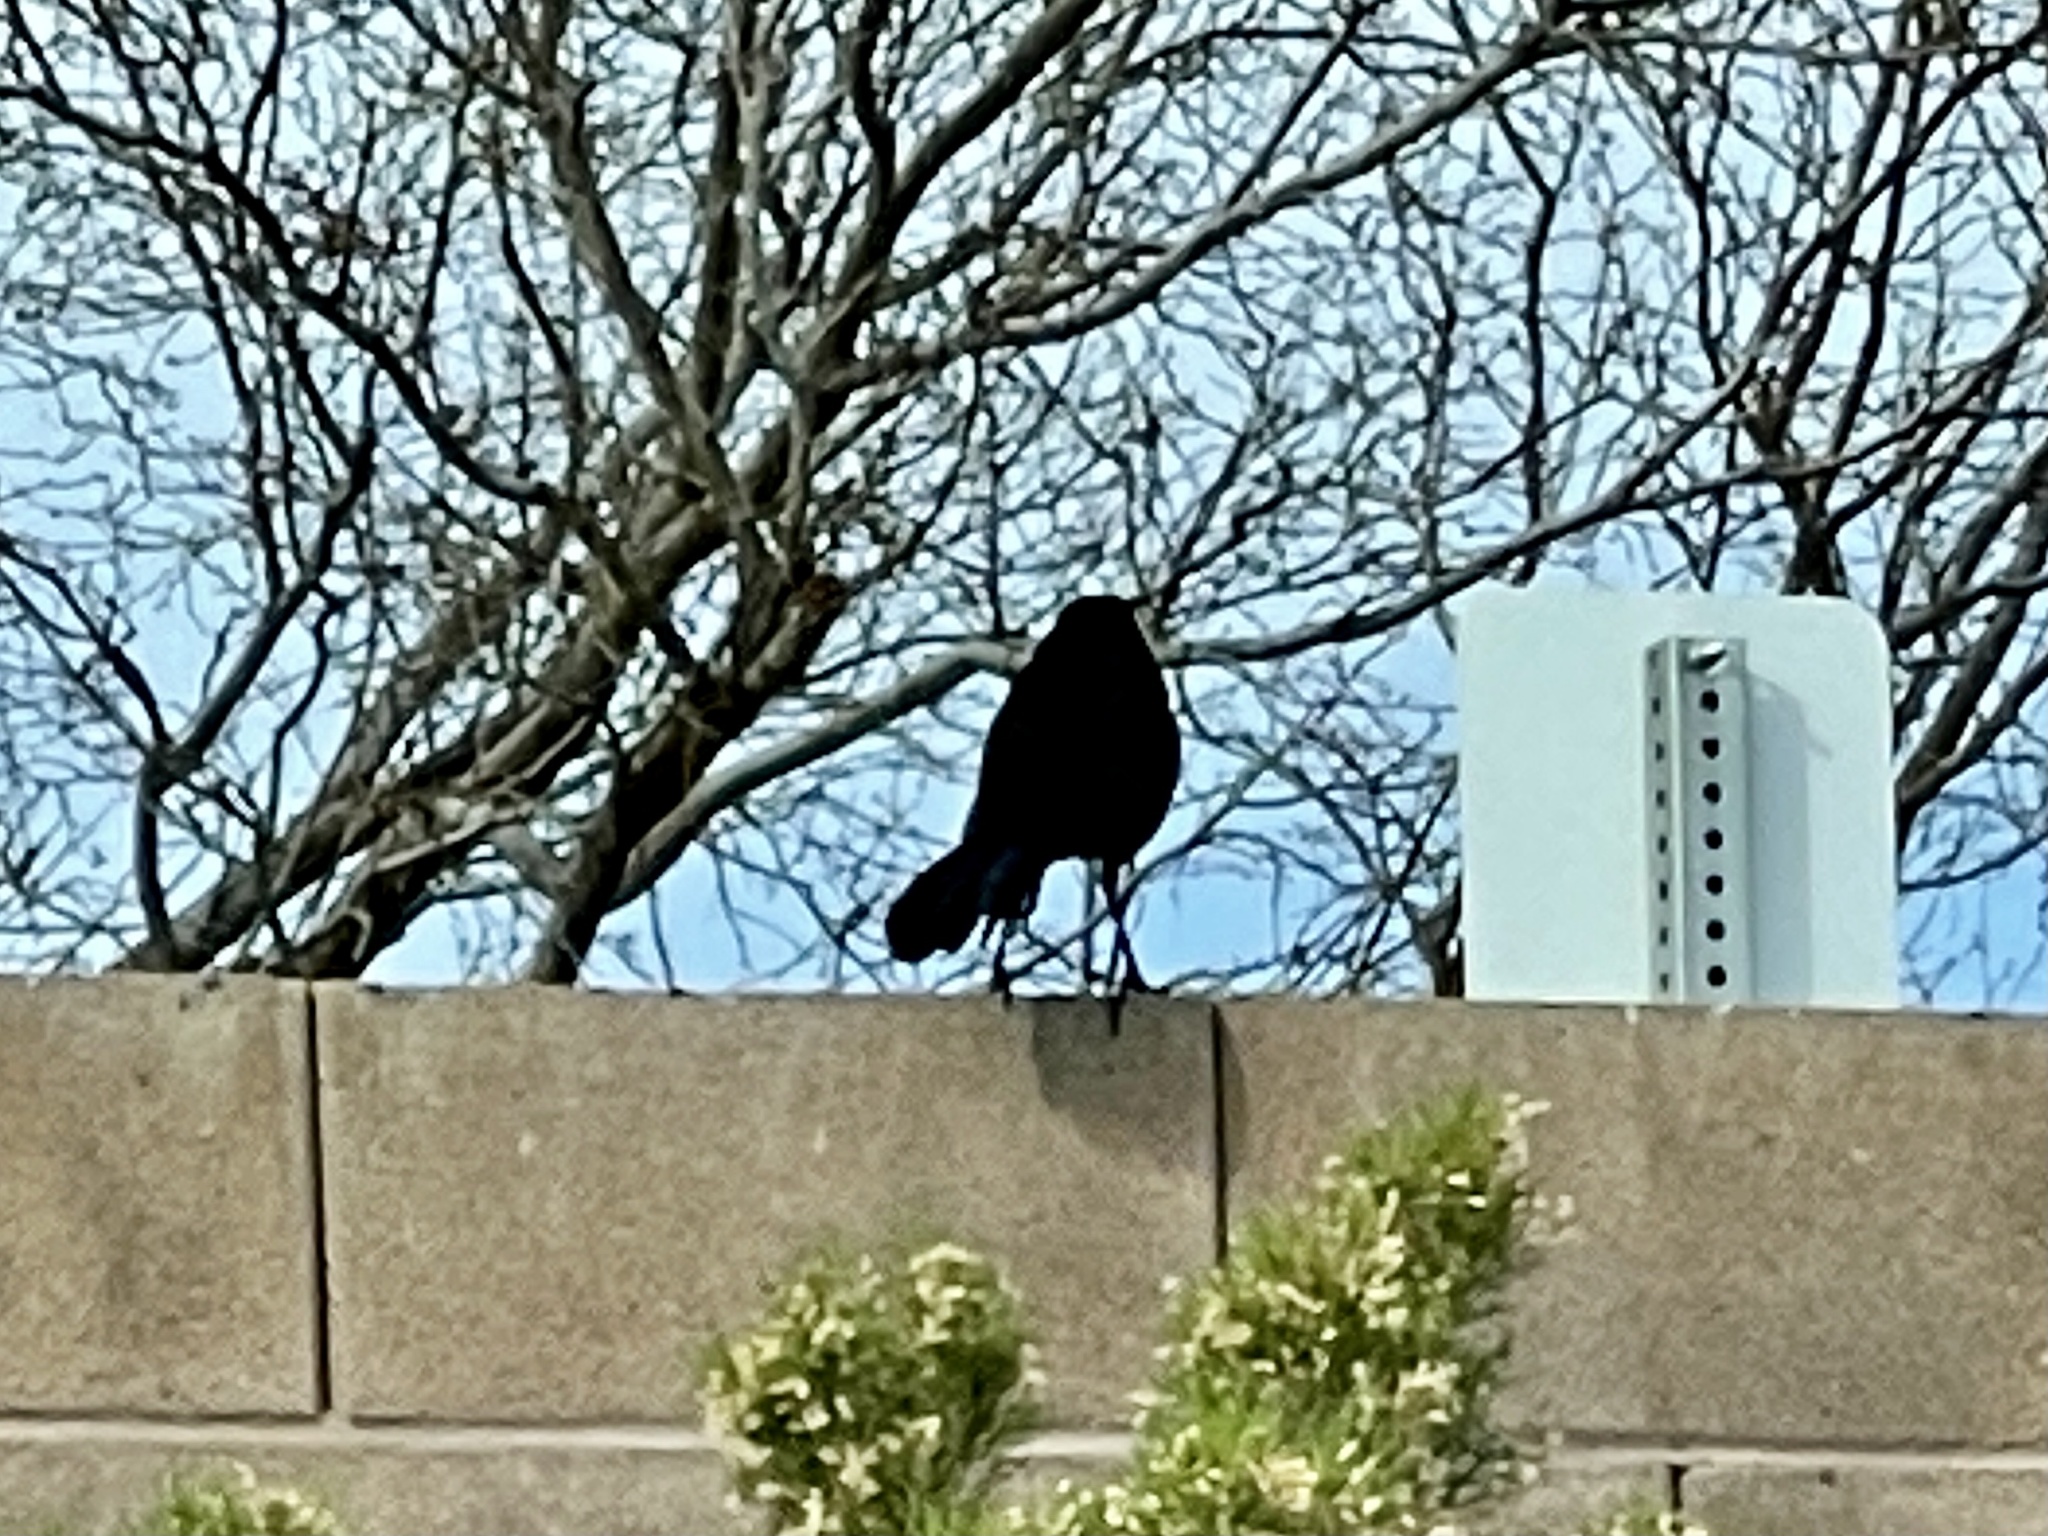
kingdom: Animalia
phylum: Chordata
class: Aves
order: Passeriformes
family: Icteridae
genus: Quiscalus
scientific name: Quiscalus mexicanus
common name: Great-tailed grackle
